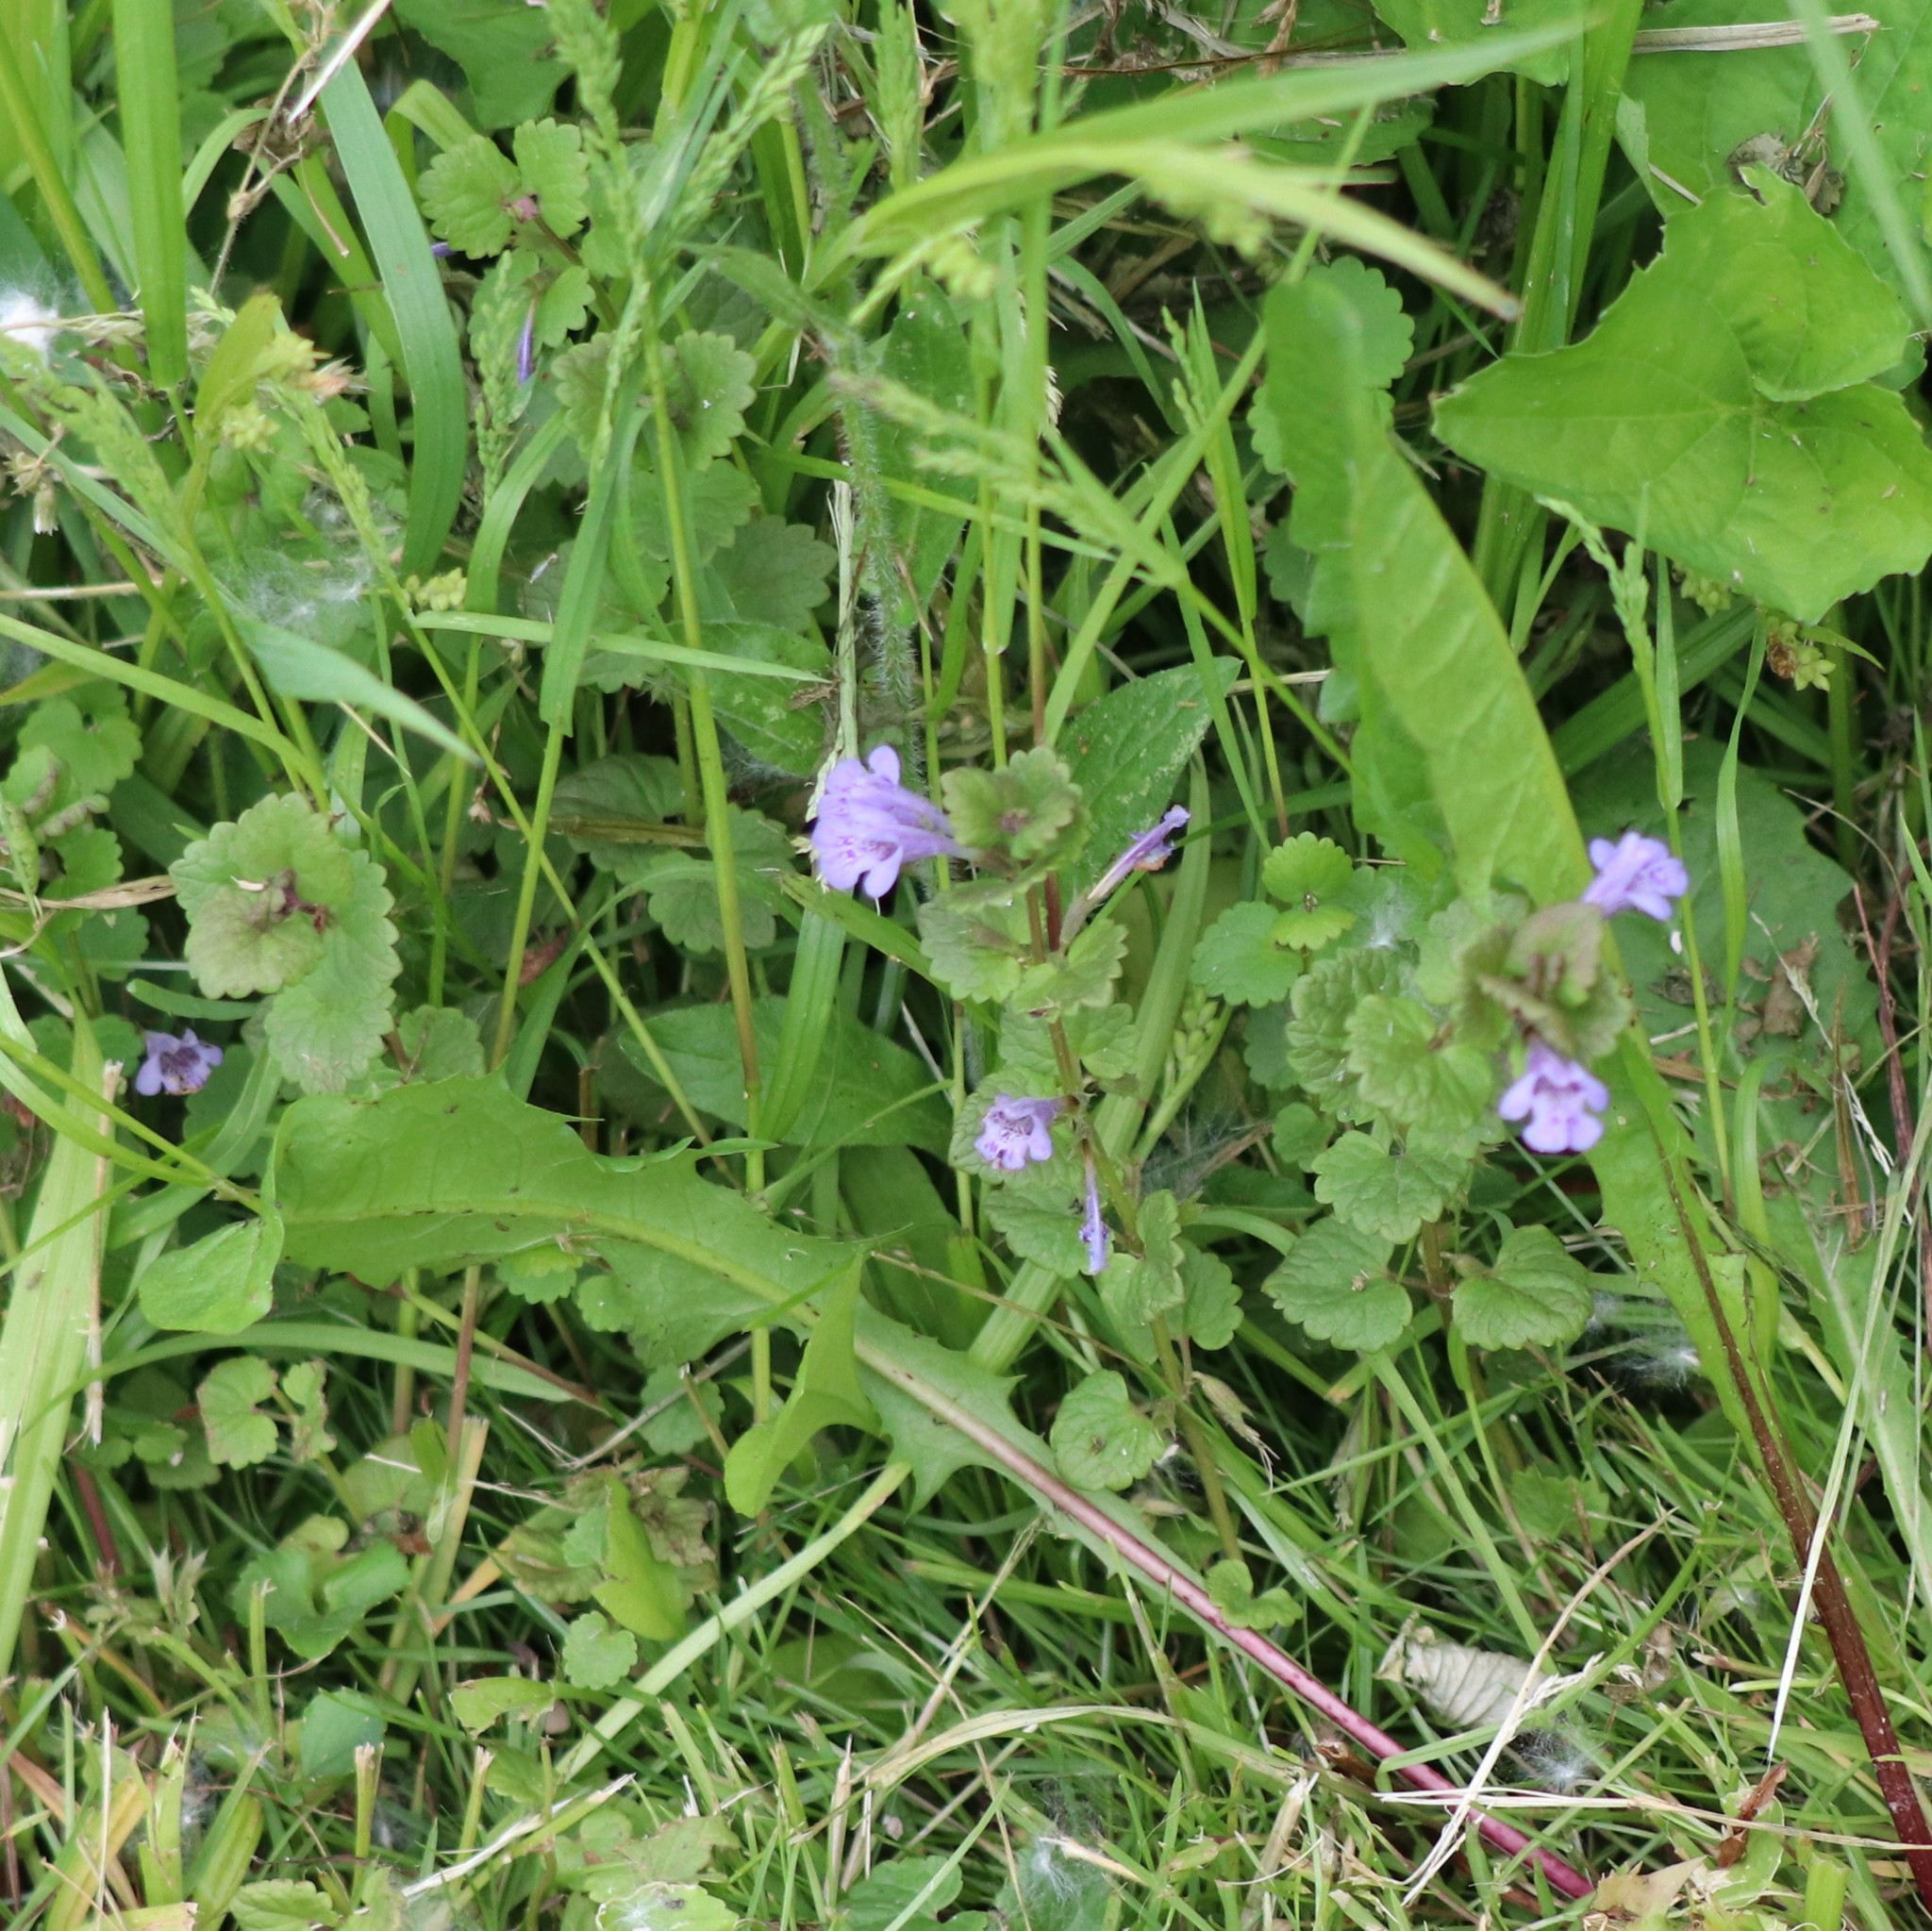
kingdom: Plantae
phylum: Tracheophyta
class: Magnoliopsida
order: Lamiales
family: Lamiaceae
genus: Glechoma
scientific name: Glechoma hederacea
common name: Ground ivy
